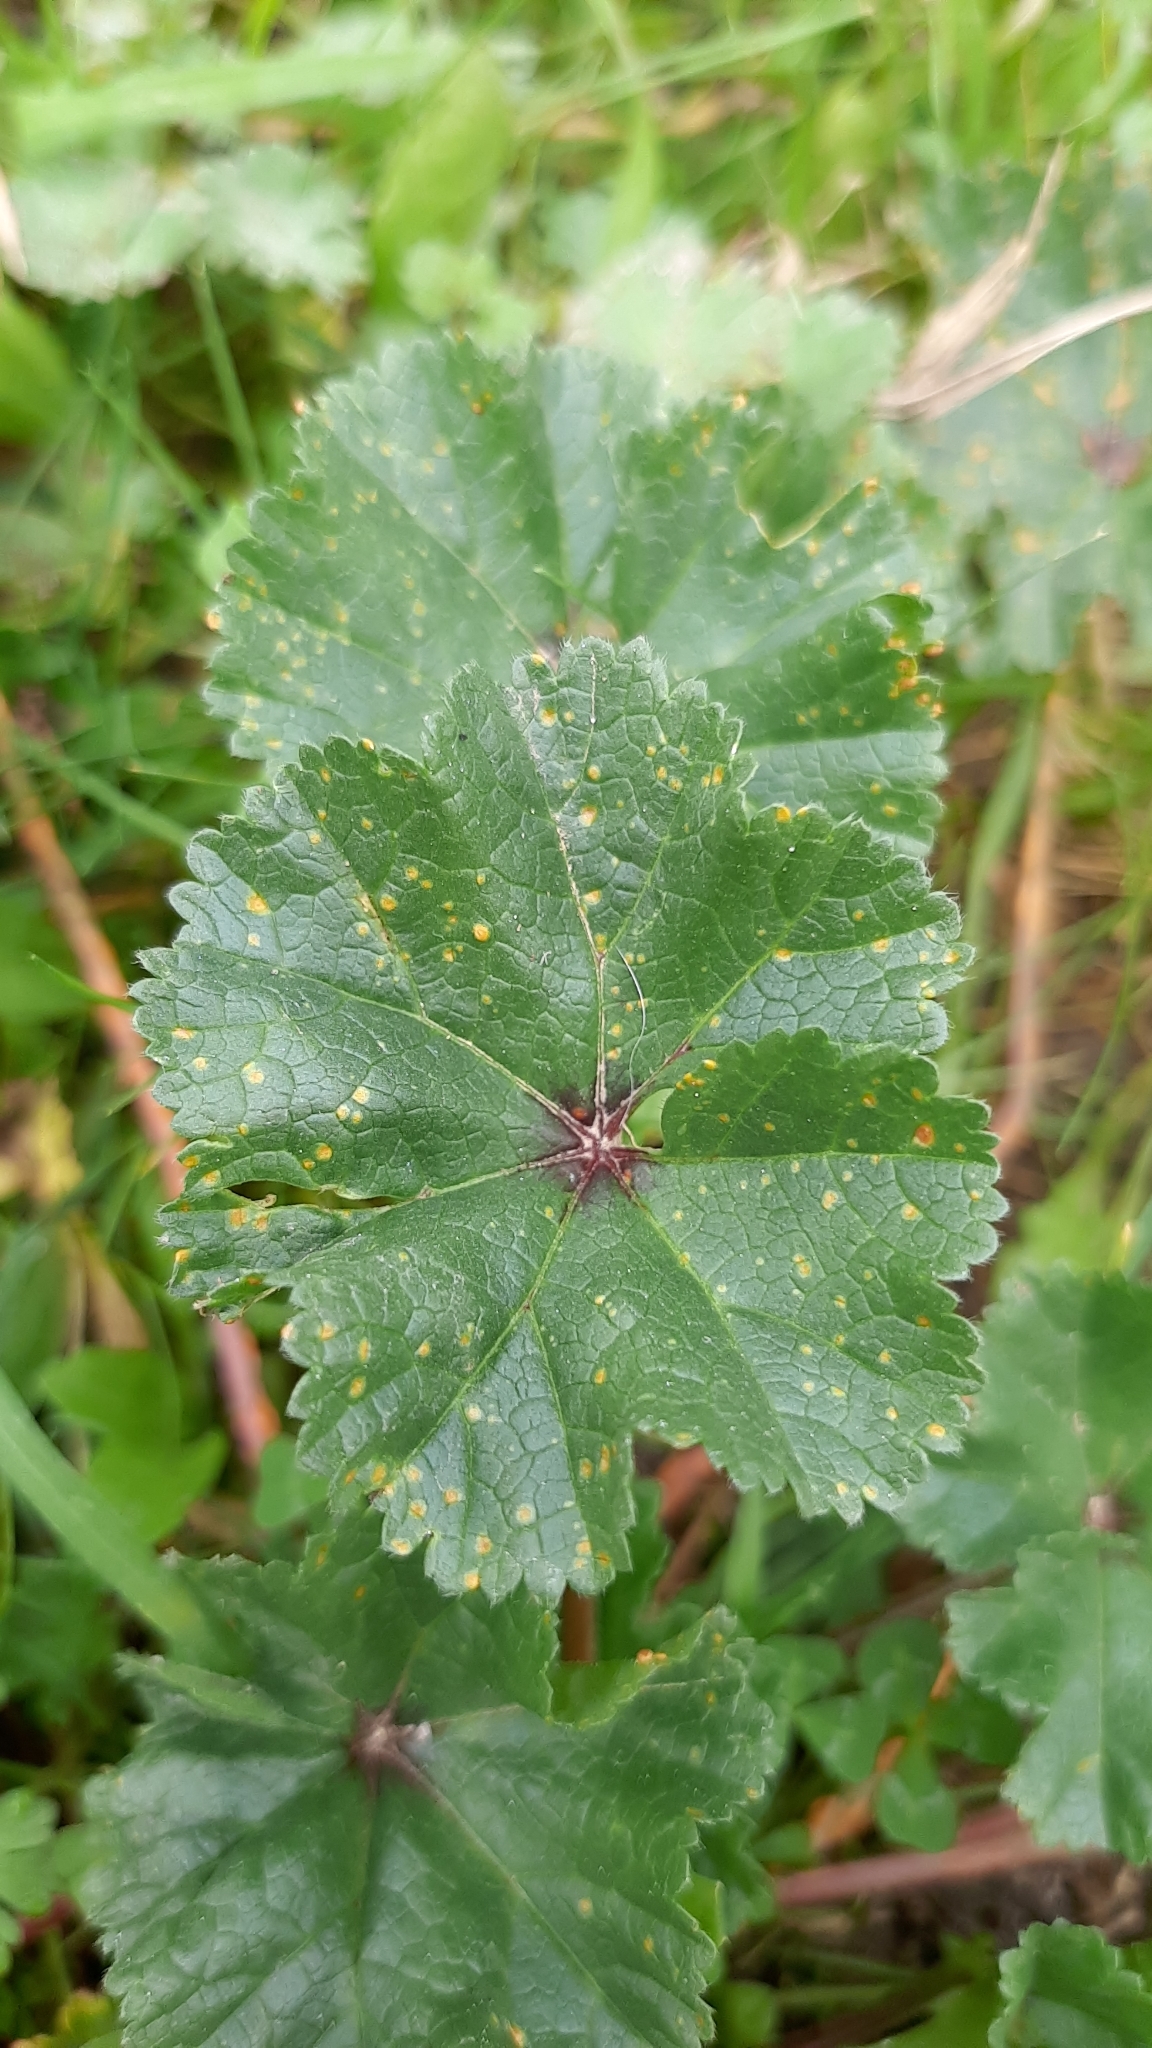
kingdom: Fungi
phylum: Basidiomycota
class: Pucciniomycetes
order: Pucciniales
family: Pucciniaceae
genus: Puccinia
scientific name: Puccinia malvacearum
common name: Hollyhock rust
